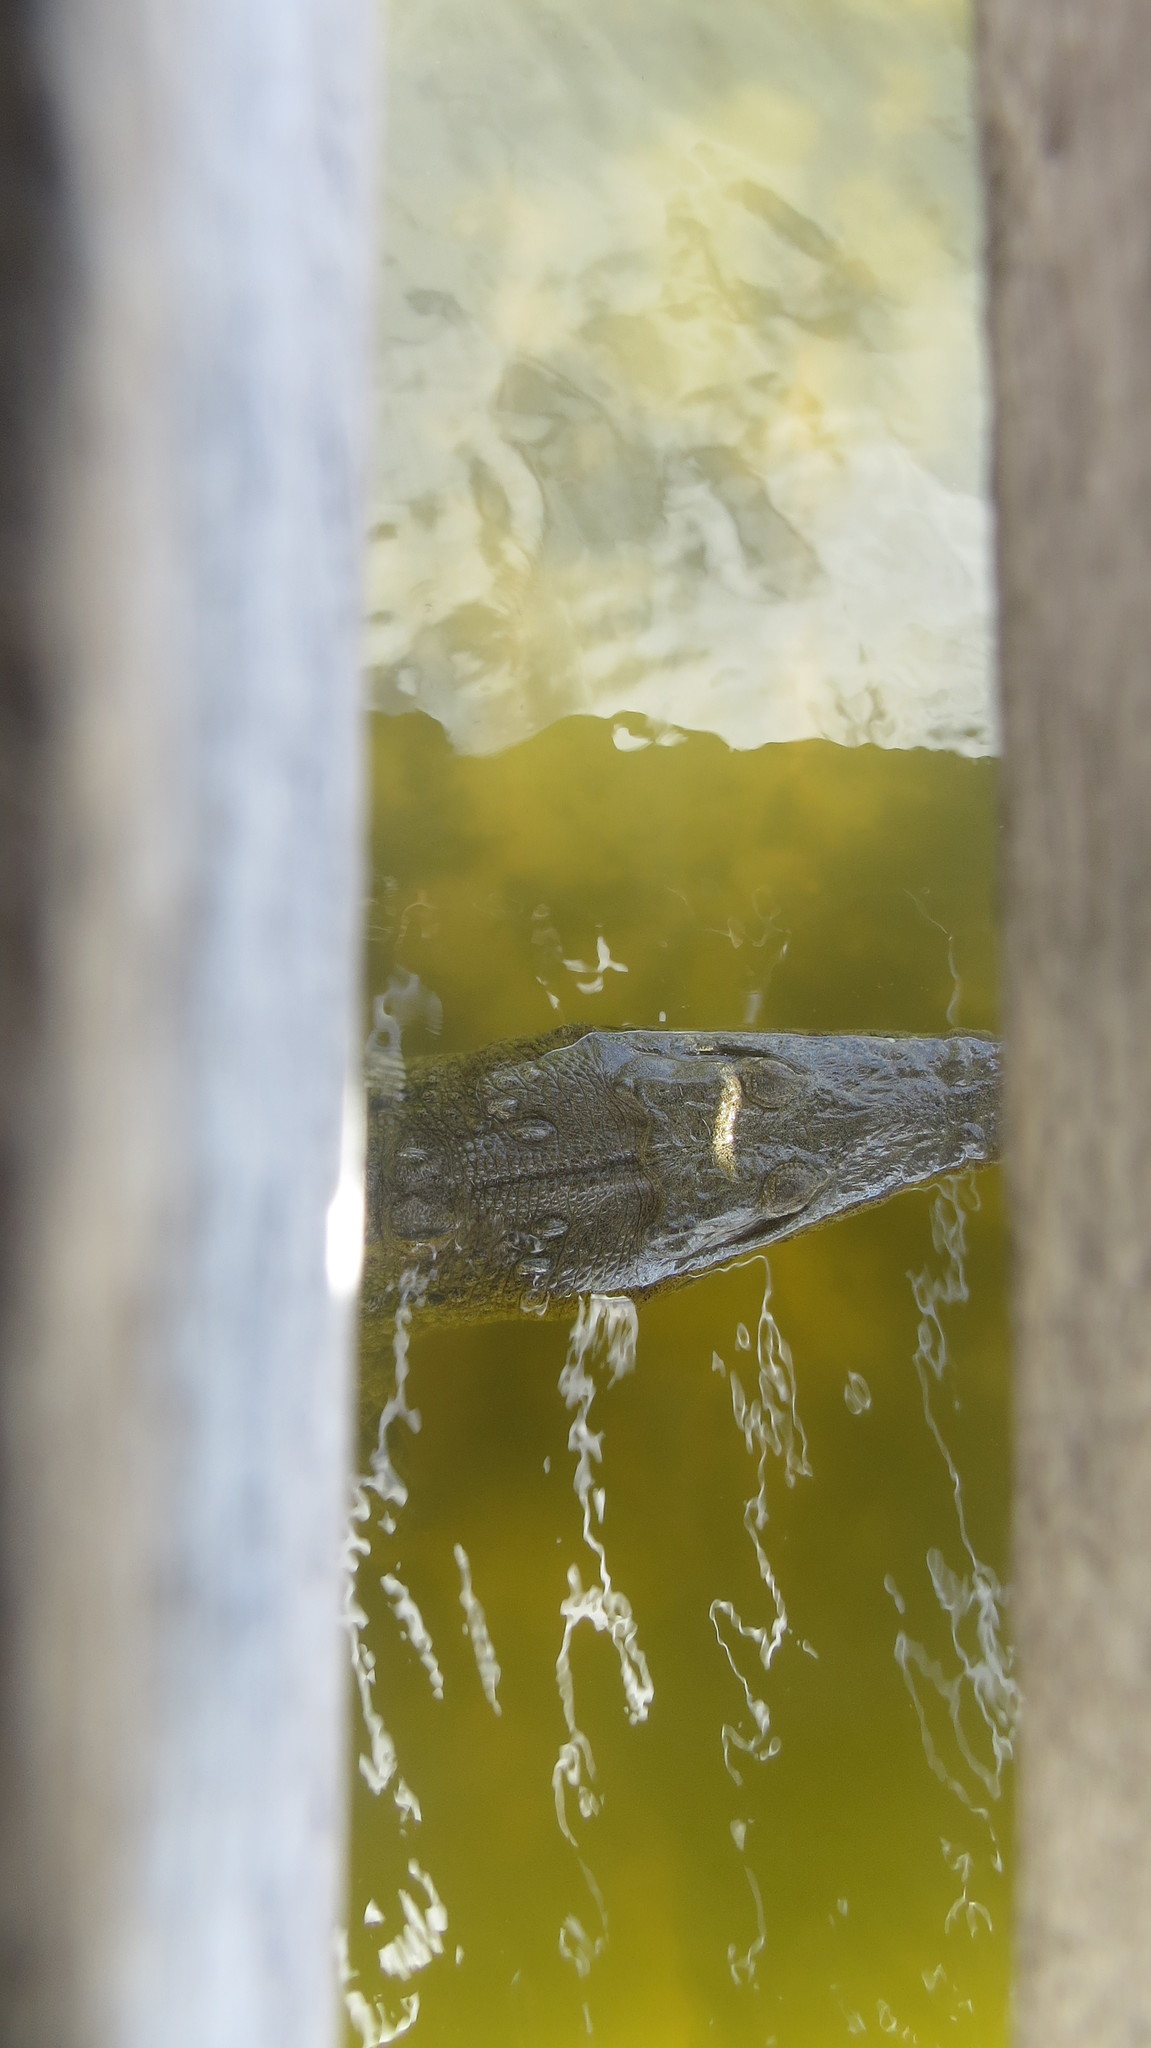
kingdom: Animalia
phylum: Chordata
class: Crocodylia
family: Crocodylidae
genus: Crocodylus
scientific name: Crocodylus acutus
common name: American crocodile
